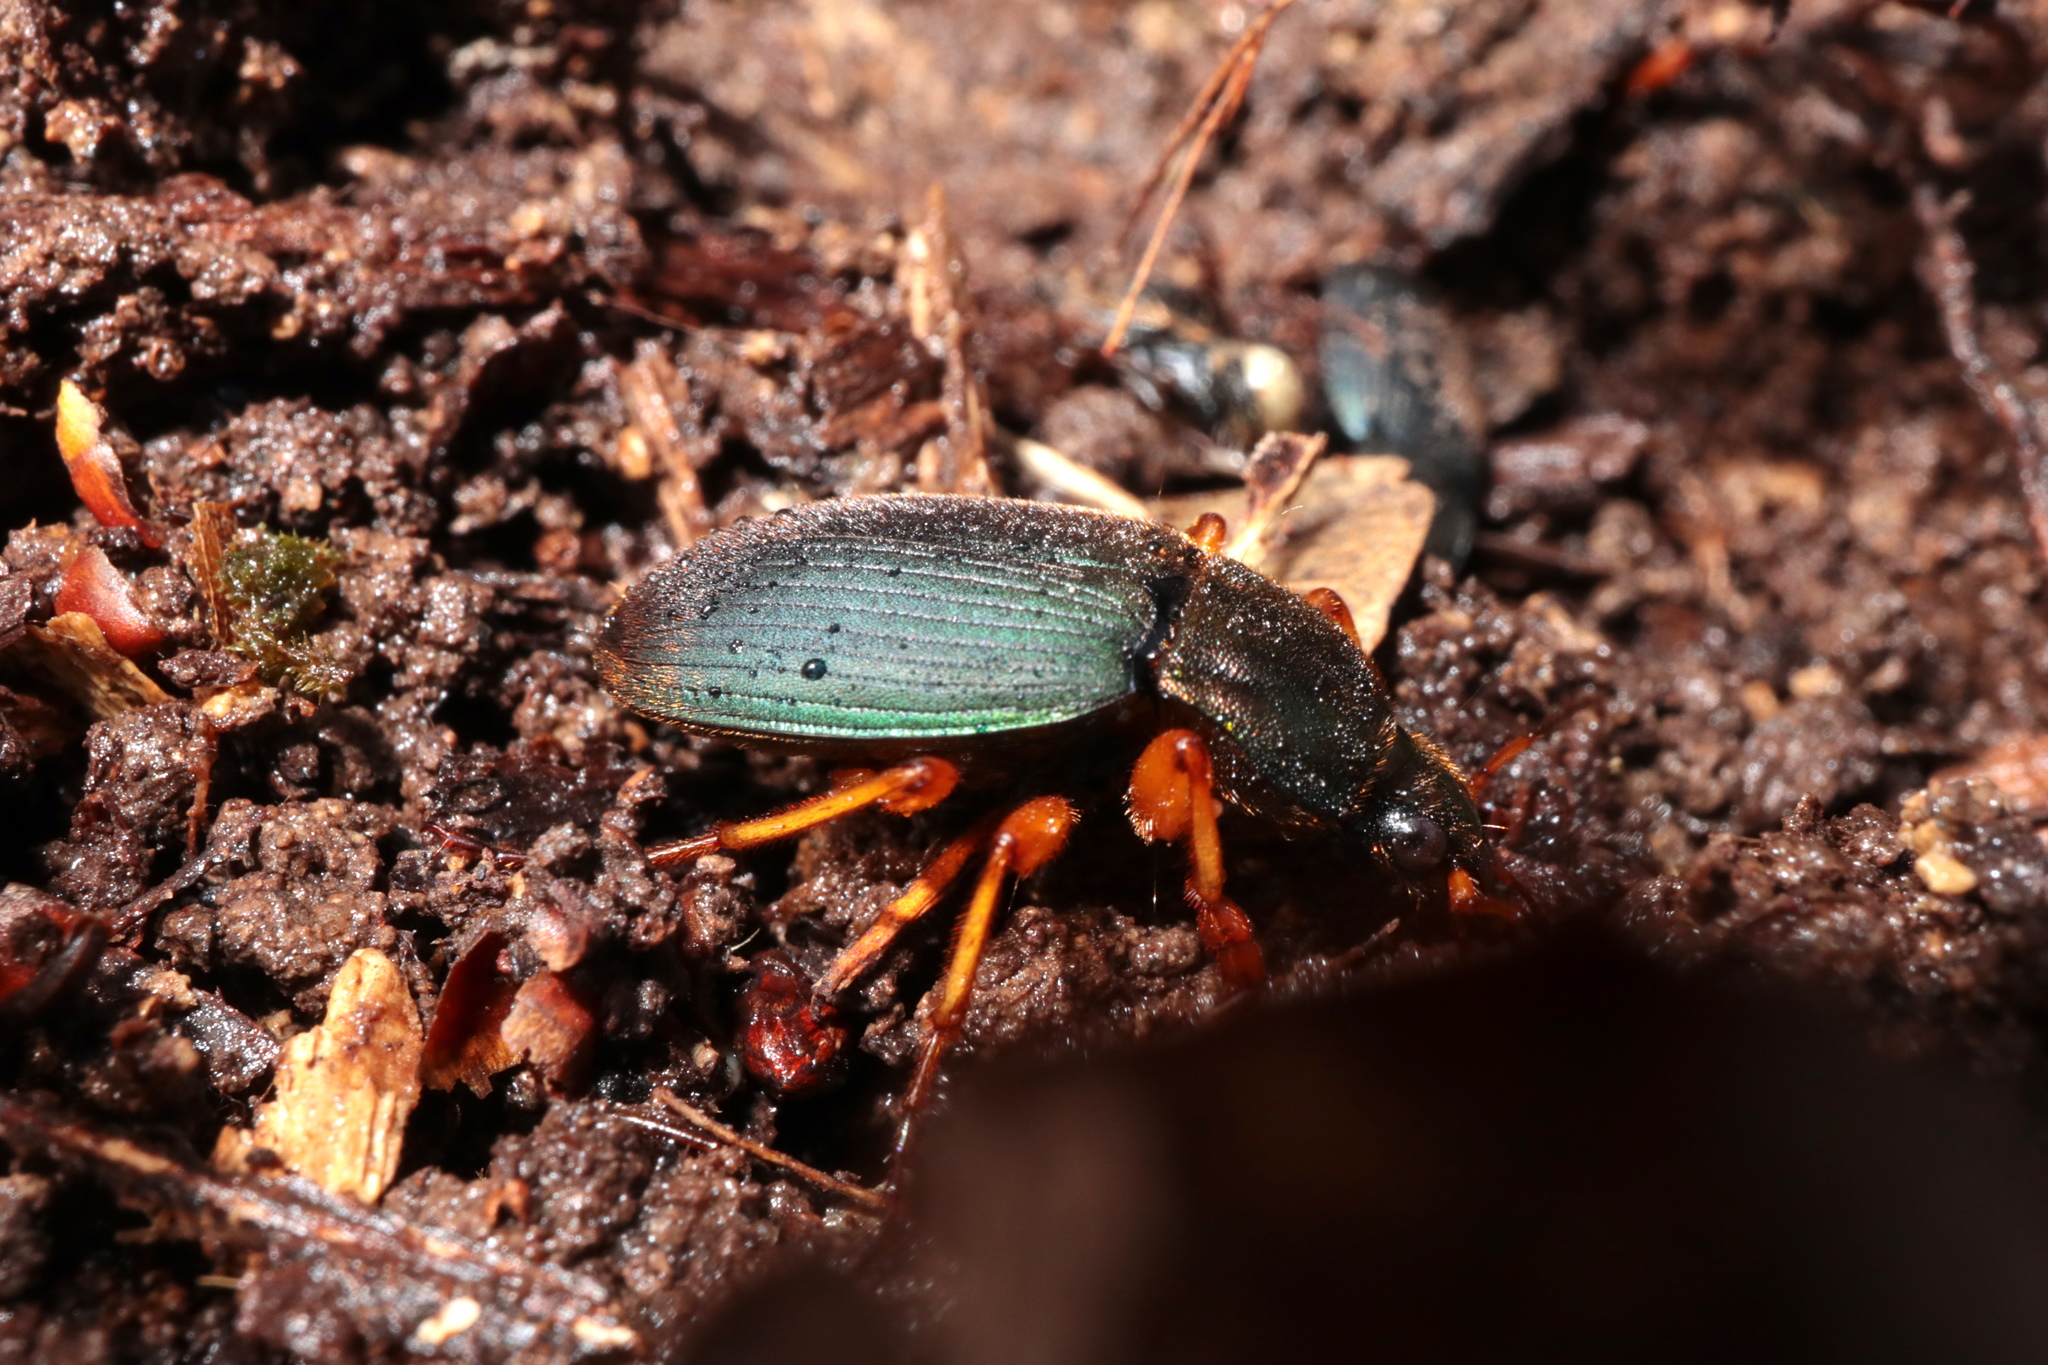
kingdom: Animalia
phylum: Arthropoda
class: Insecta
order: Coleoptera
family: Carabidae
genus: Chlaenius
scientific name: Chlaenius aestivus
